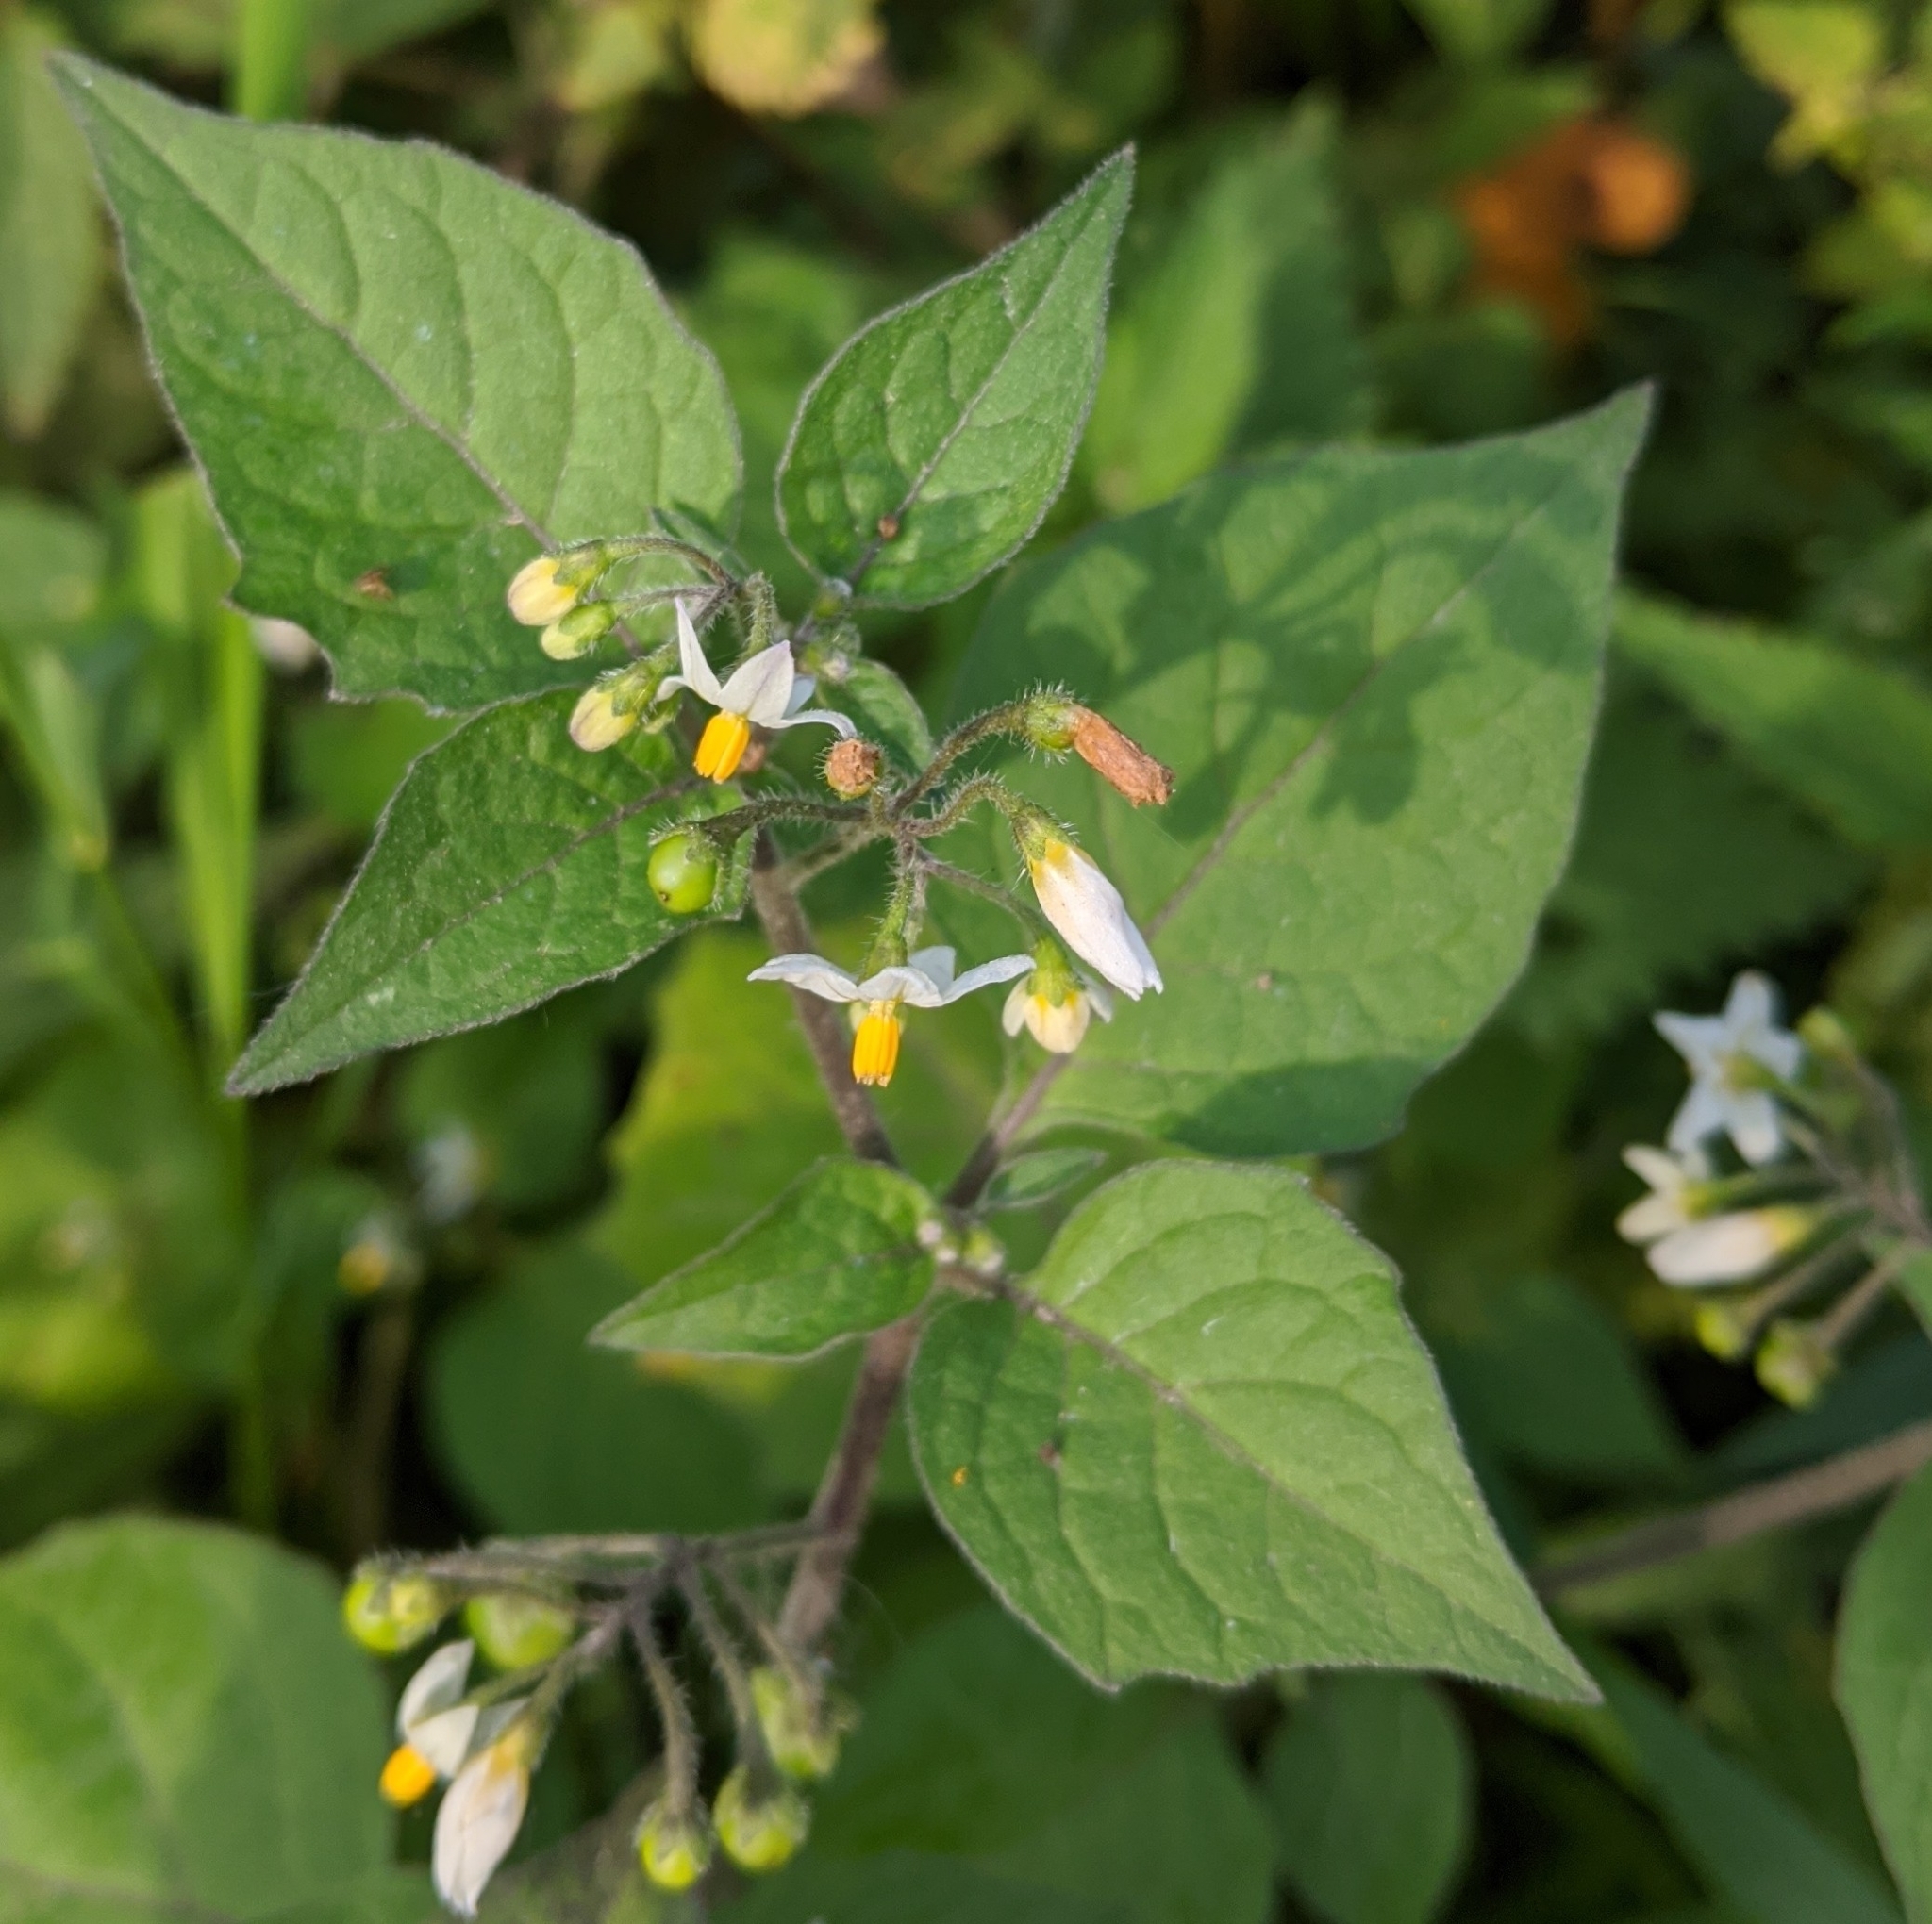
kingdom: Plantae
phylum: Tracheophyta
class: Magnoliopsida
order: Solanales
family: Solanaceae
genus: Solanum
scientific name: Solanum nigrum
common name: Black nightshade
